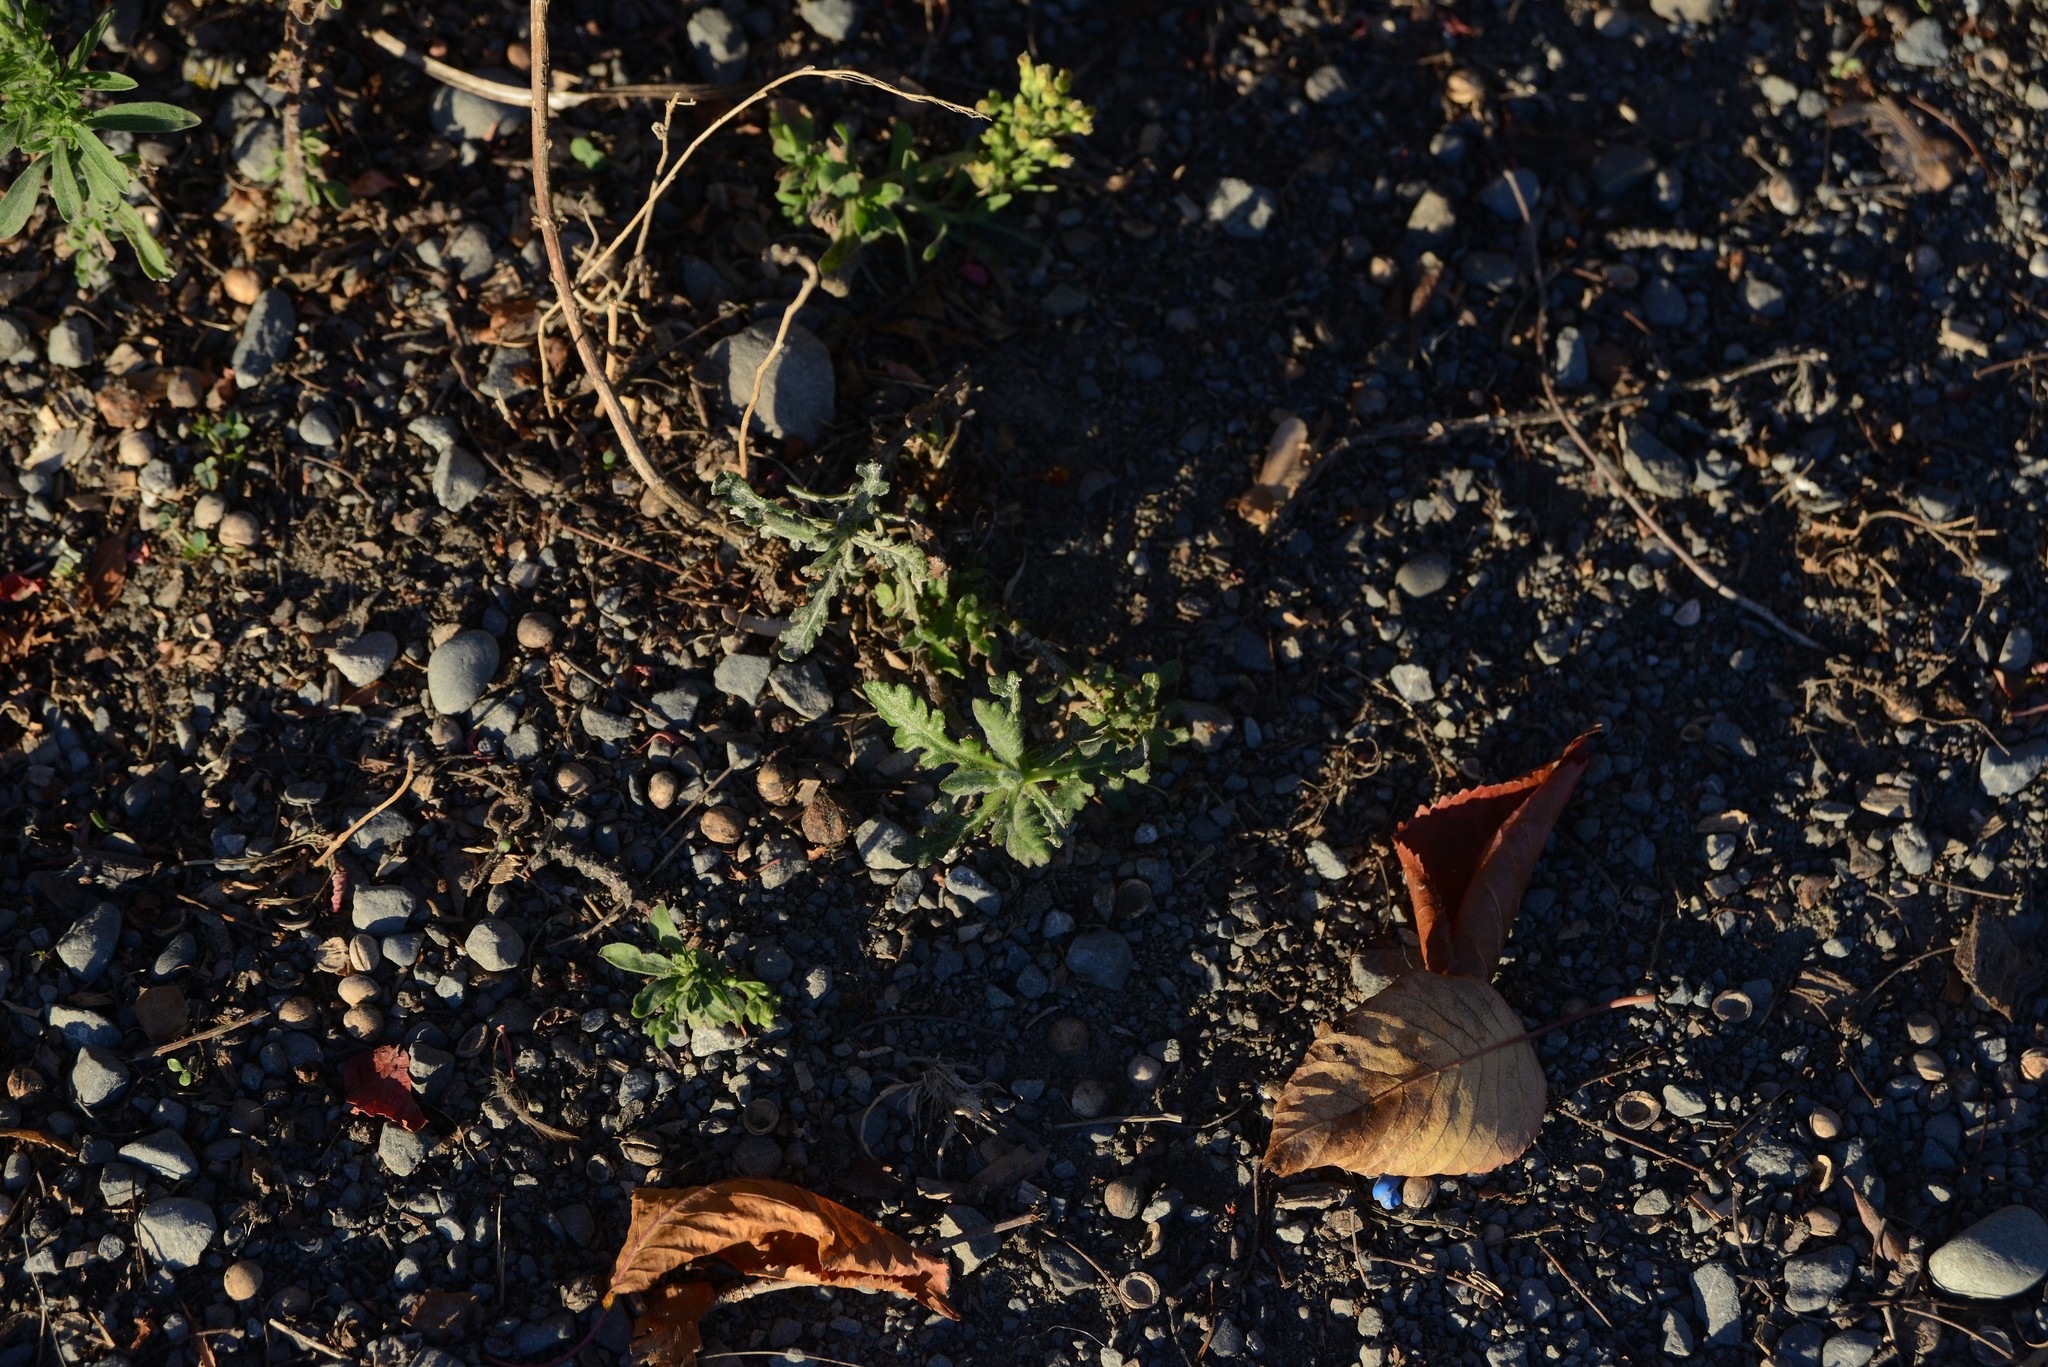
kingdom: Plantae
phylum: Tracheophyta
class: Magnoliopsida
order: Asterales
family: Asteraceae
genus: Senecio
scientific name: Senecio glomeratus
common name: Cutleaf burnweed
